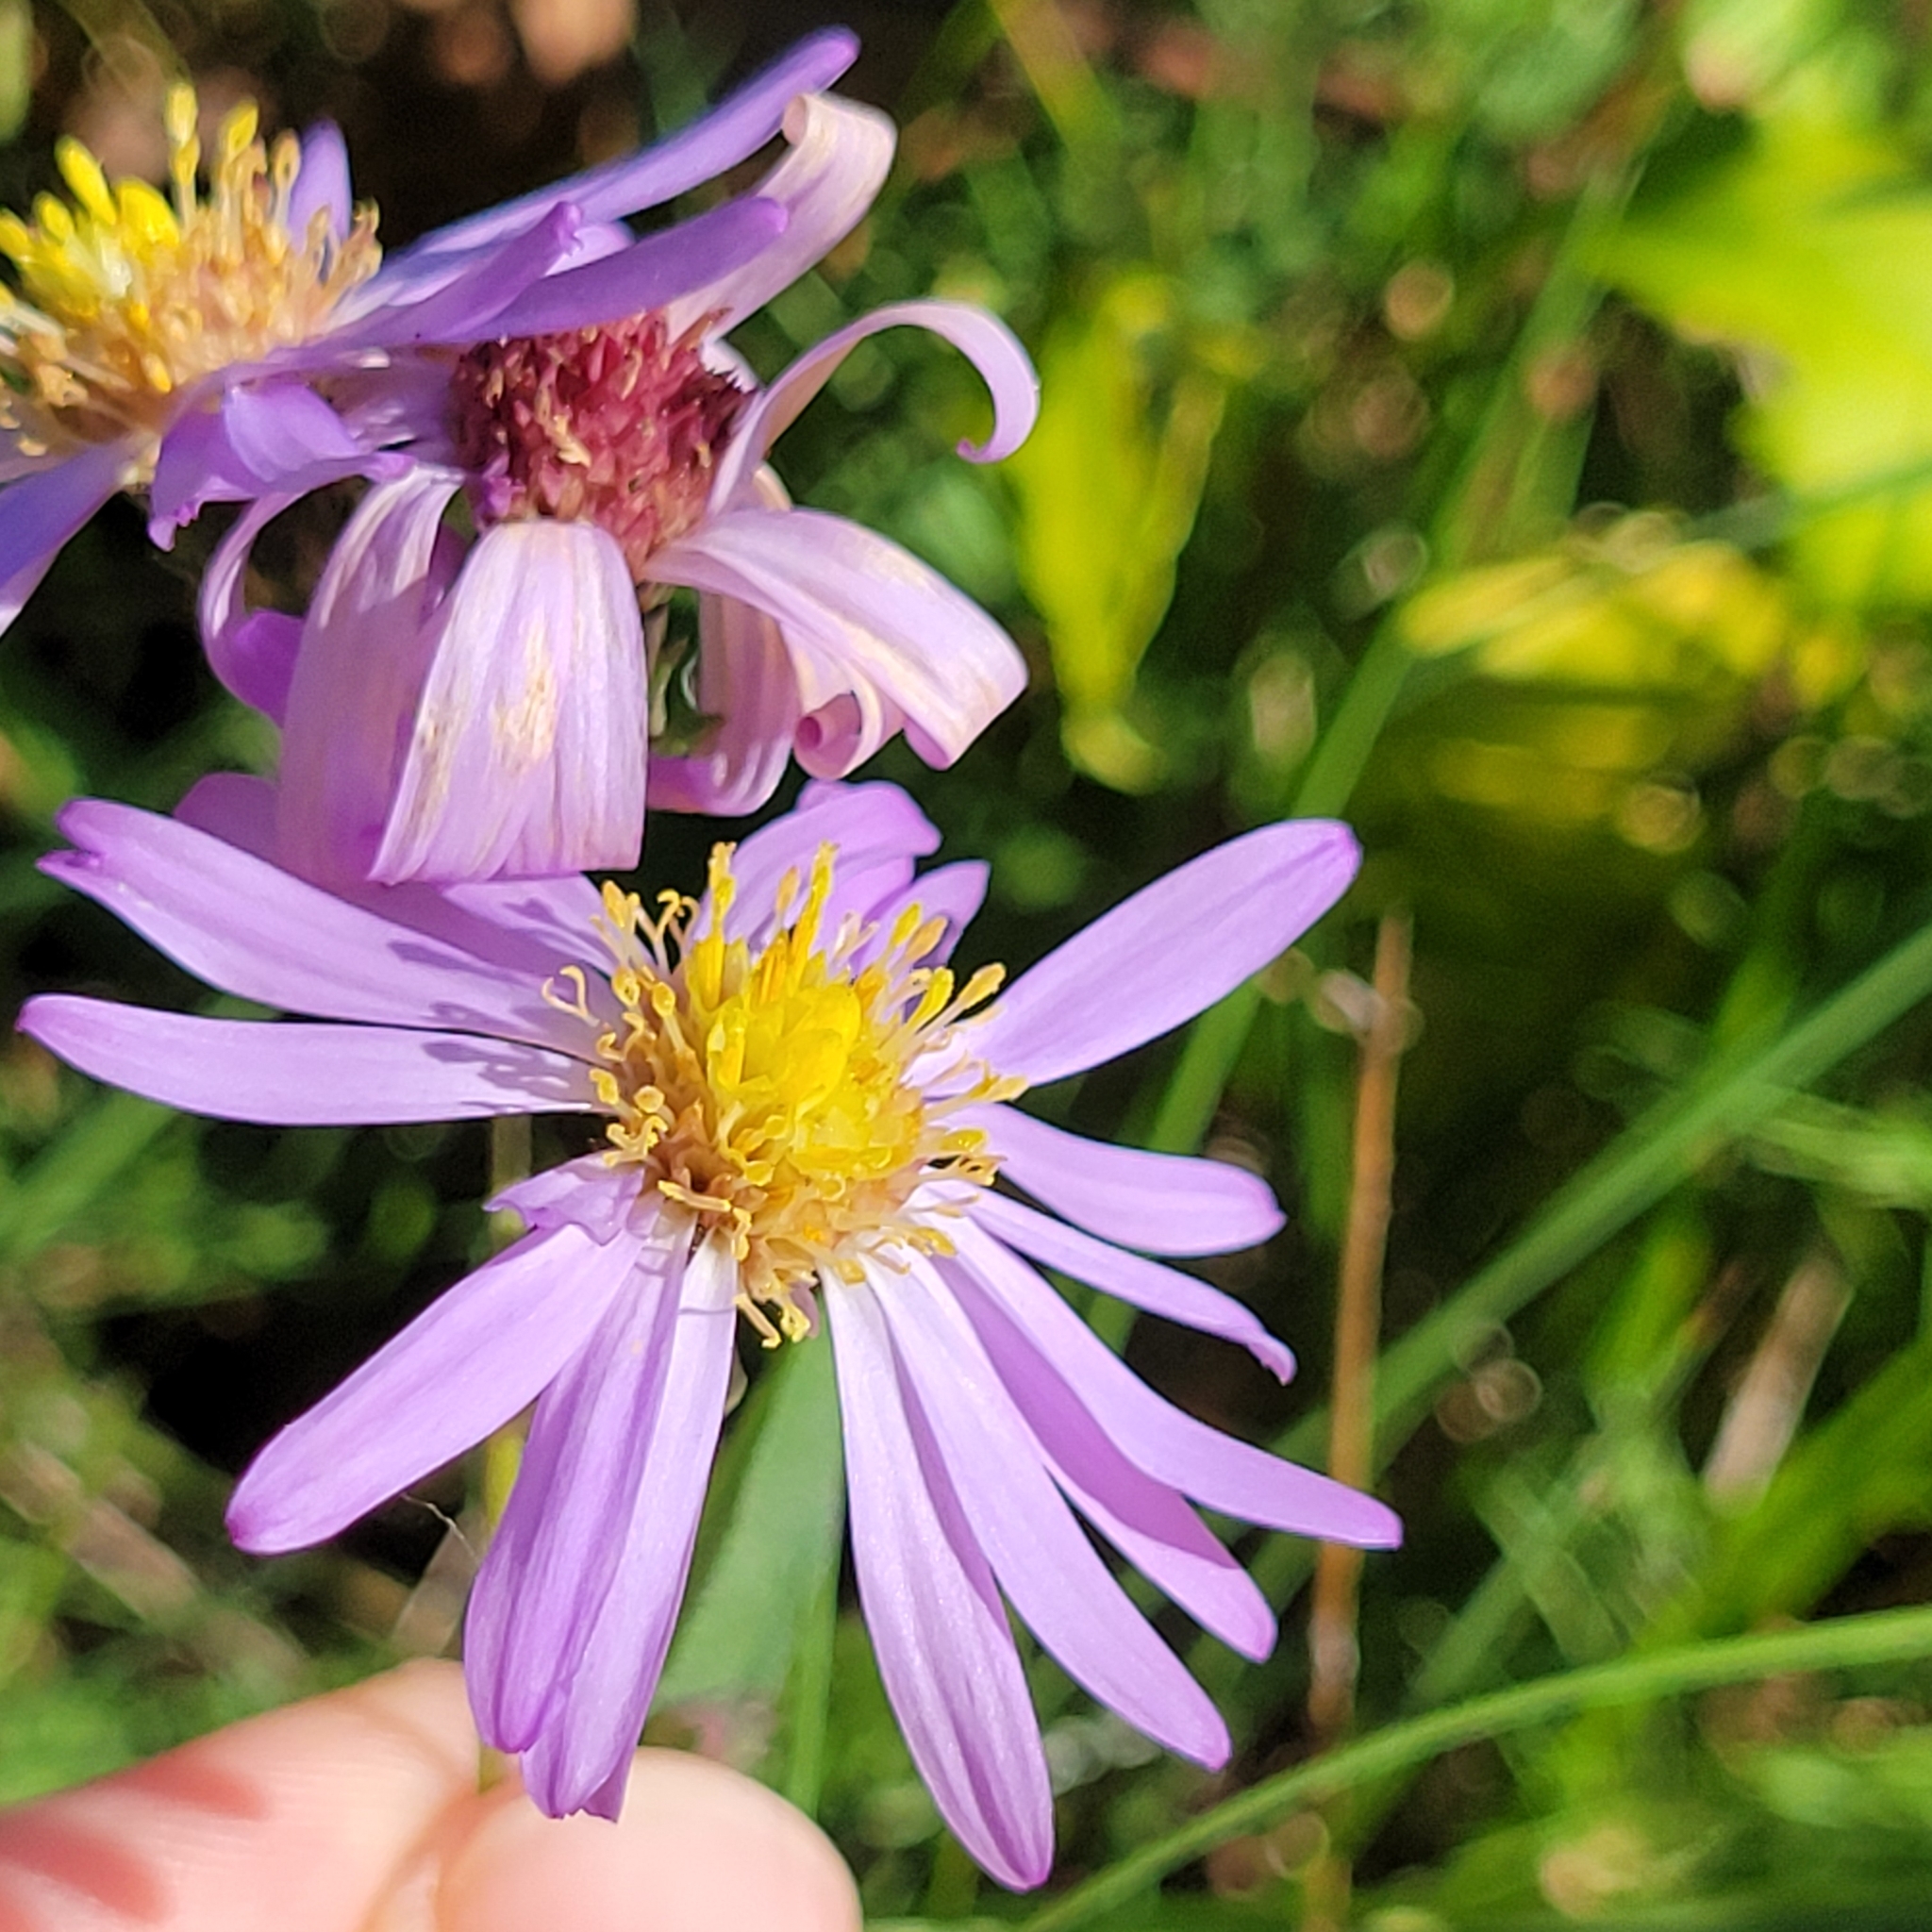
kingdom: Plantae
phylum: Tracheophyta
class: Magnoliopsida
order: Asterales
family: Asteraceae
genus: Symphyotrichum
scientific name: Symphyotrichum patens
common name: Late purple aster
